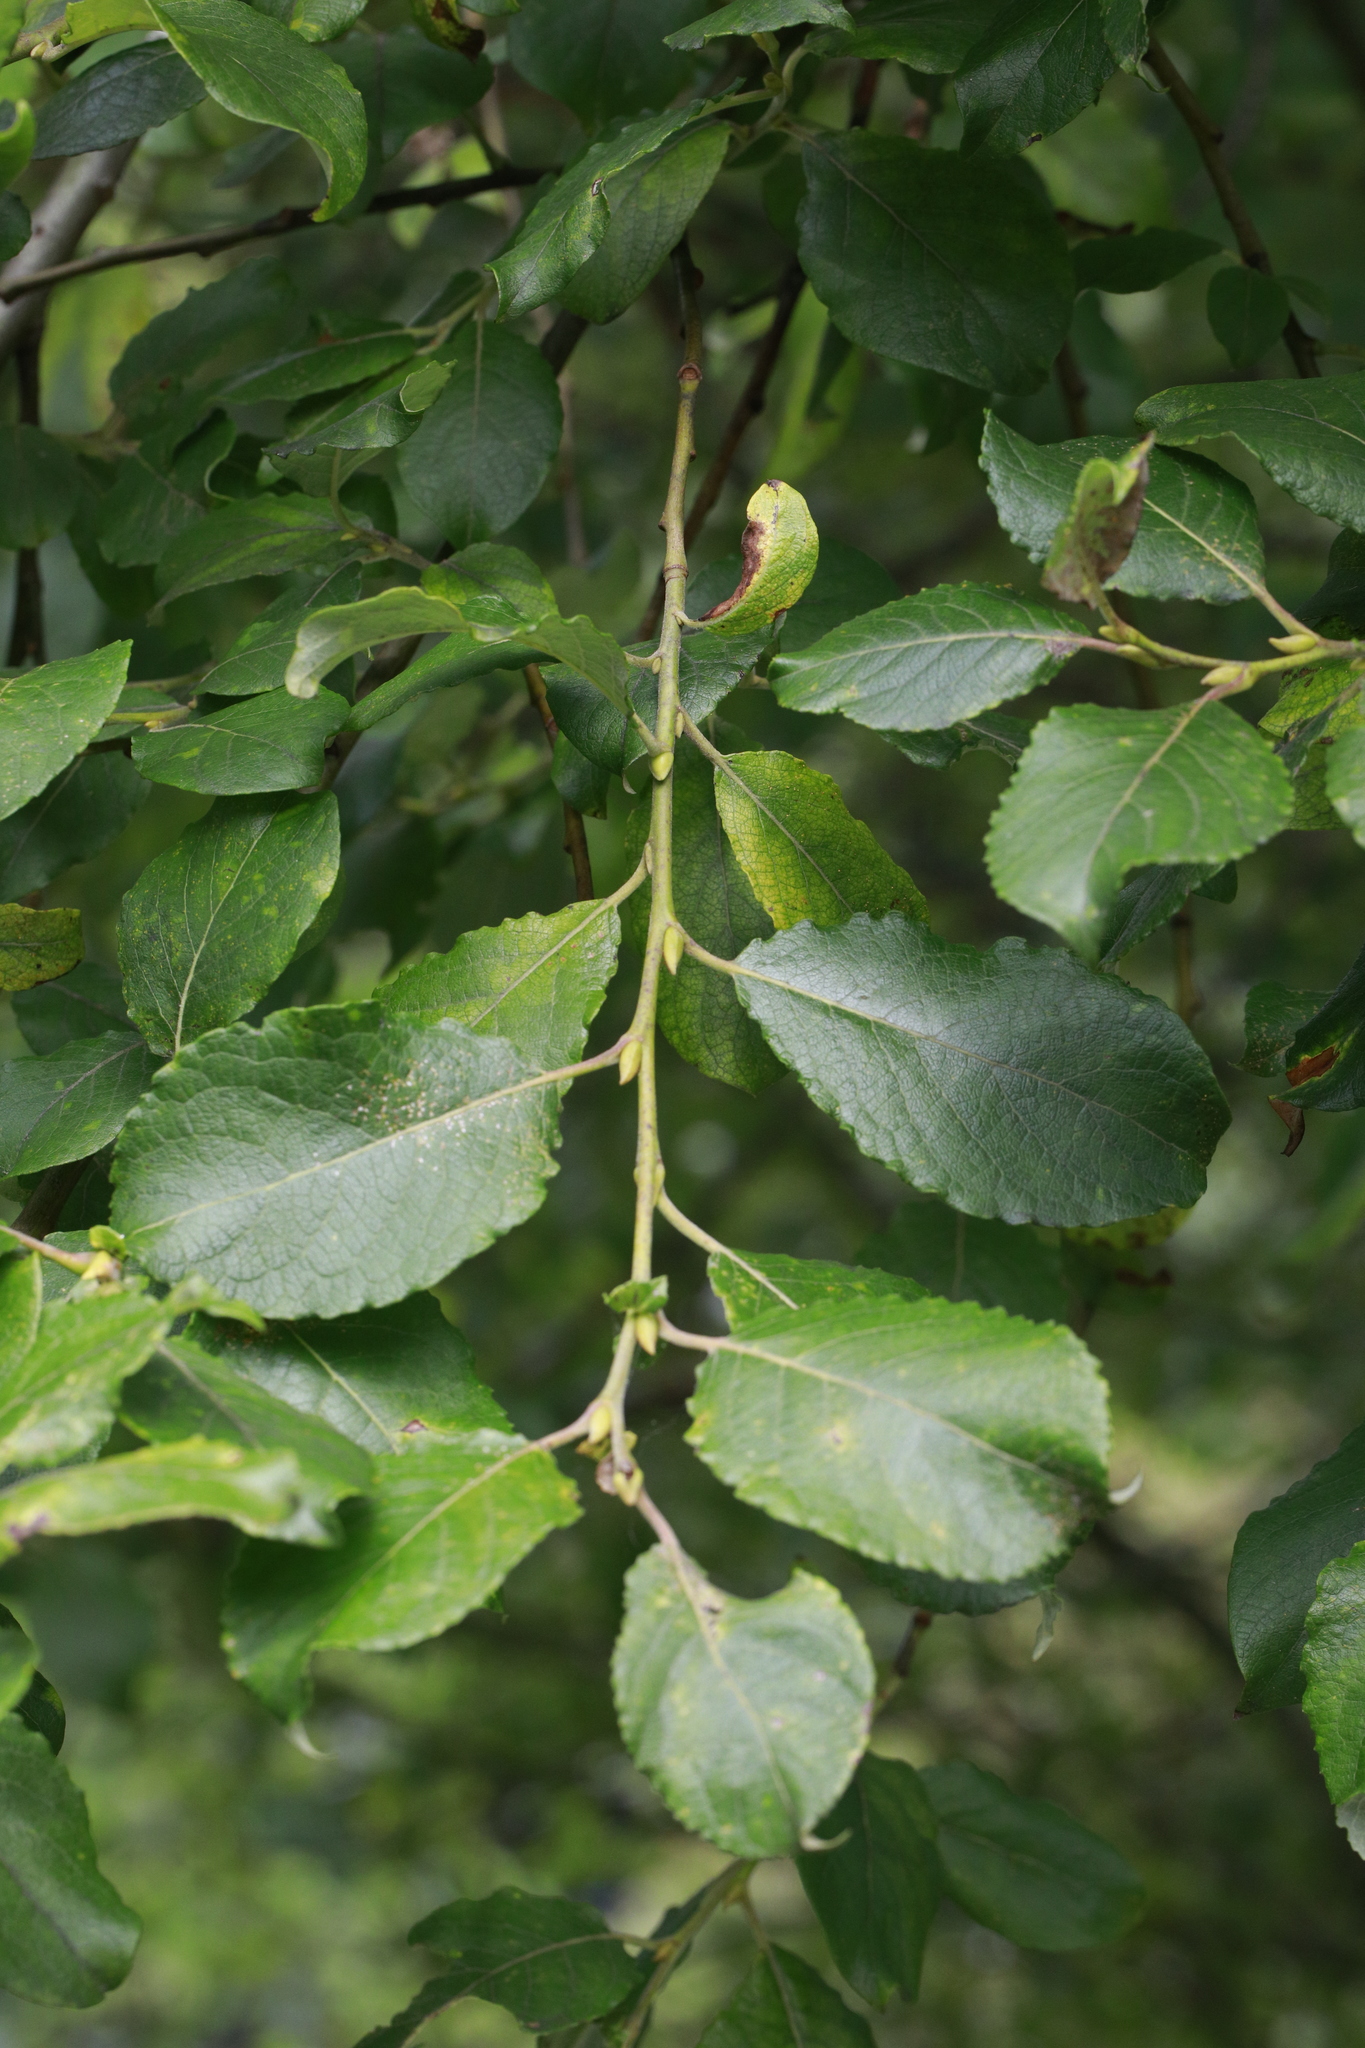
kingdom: Plantae
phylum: Tracheophyta
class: Magnoliopsida
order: Malpighiales
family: Salicaceae
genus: Salix
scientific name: Salix caprea
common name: Goat willow
